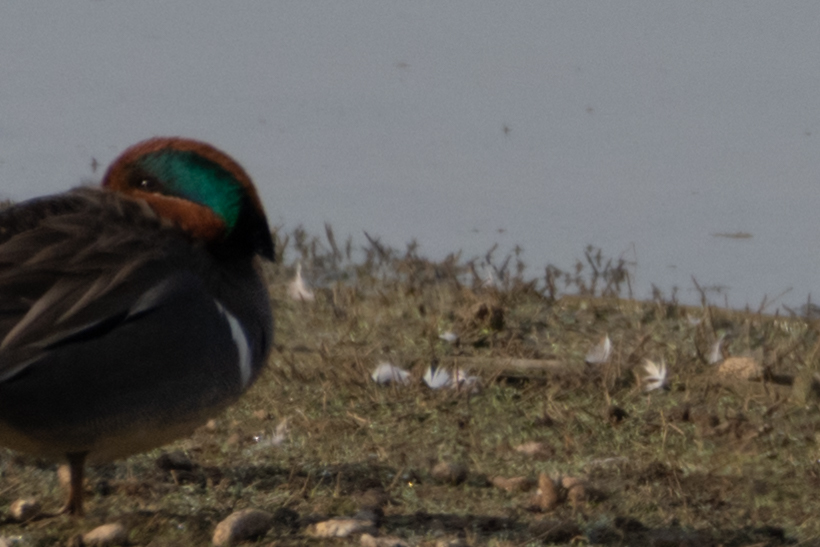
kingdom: Animalia
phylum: Chordata
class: Aves
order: Anseriformes
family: Anatidae
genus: Anas
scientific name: Anas crecca
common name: Eurasian teal
